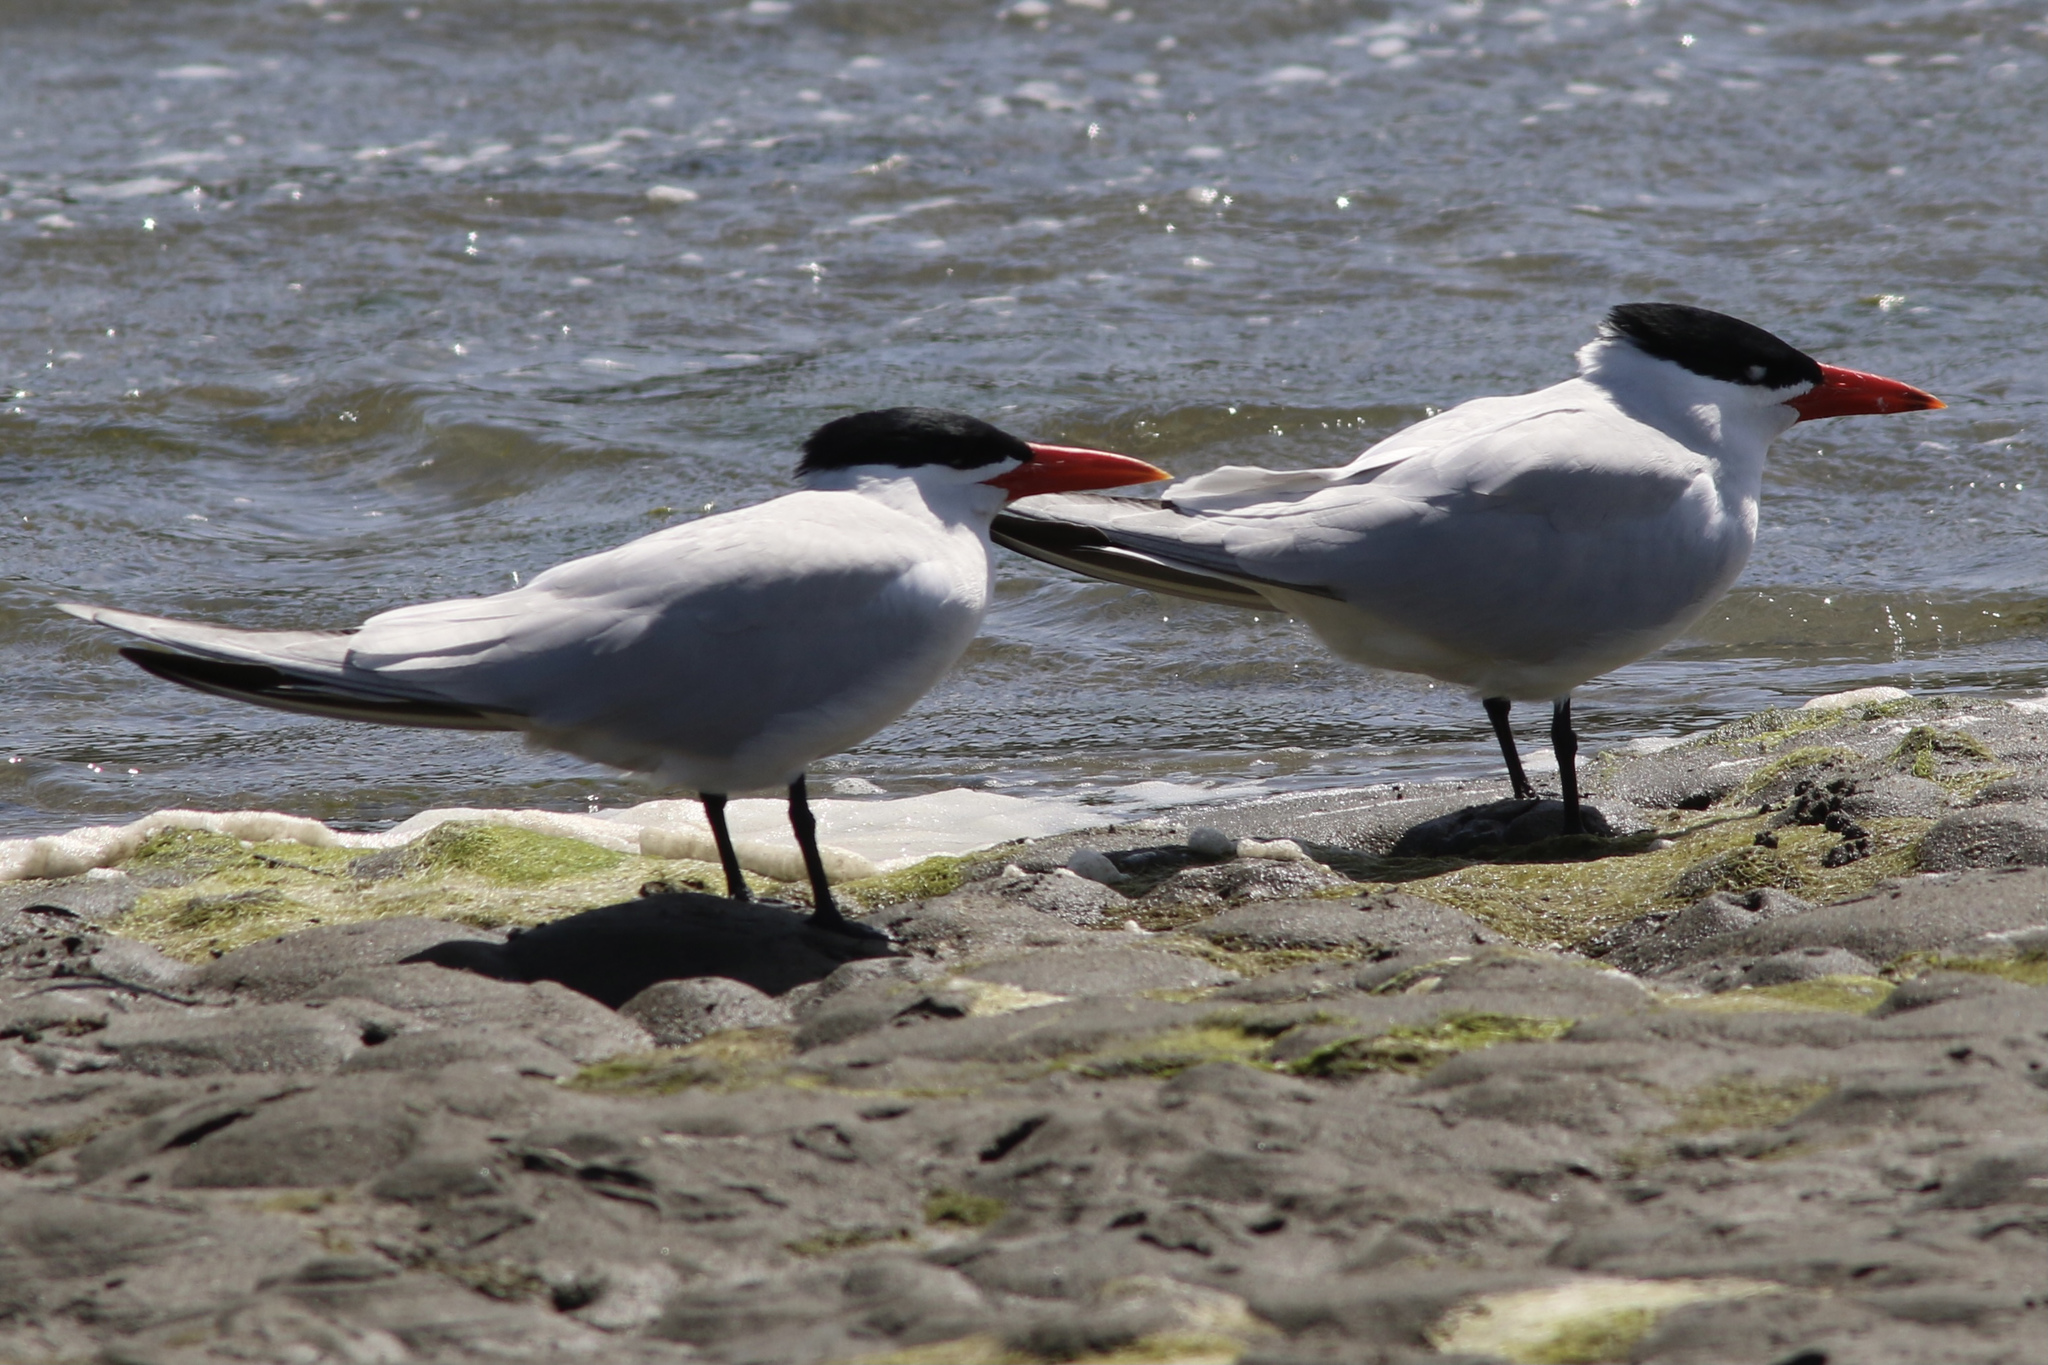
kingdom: Animalia
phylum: Chordata
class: Aves
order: Charadriiformes
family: Laridae
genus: Hydroprogne
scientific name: Hydroprogne caspia
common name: Caspian tern
